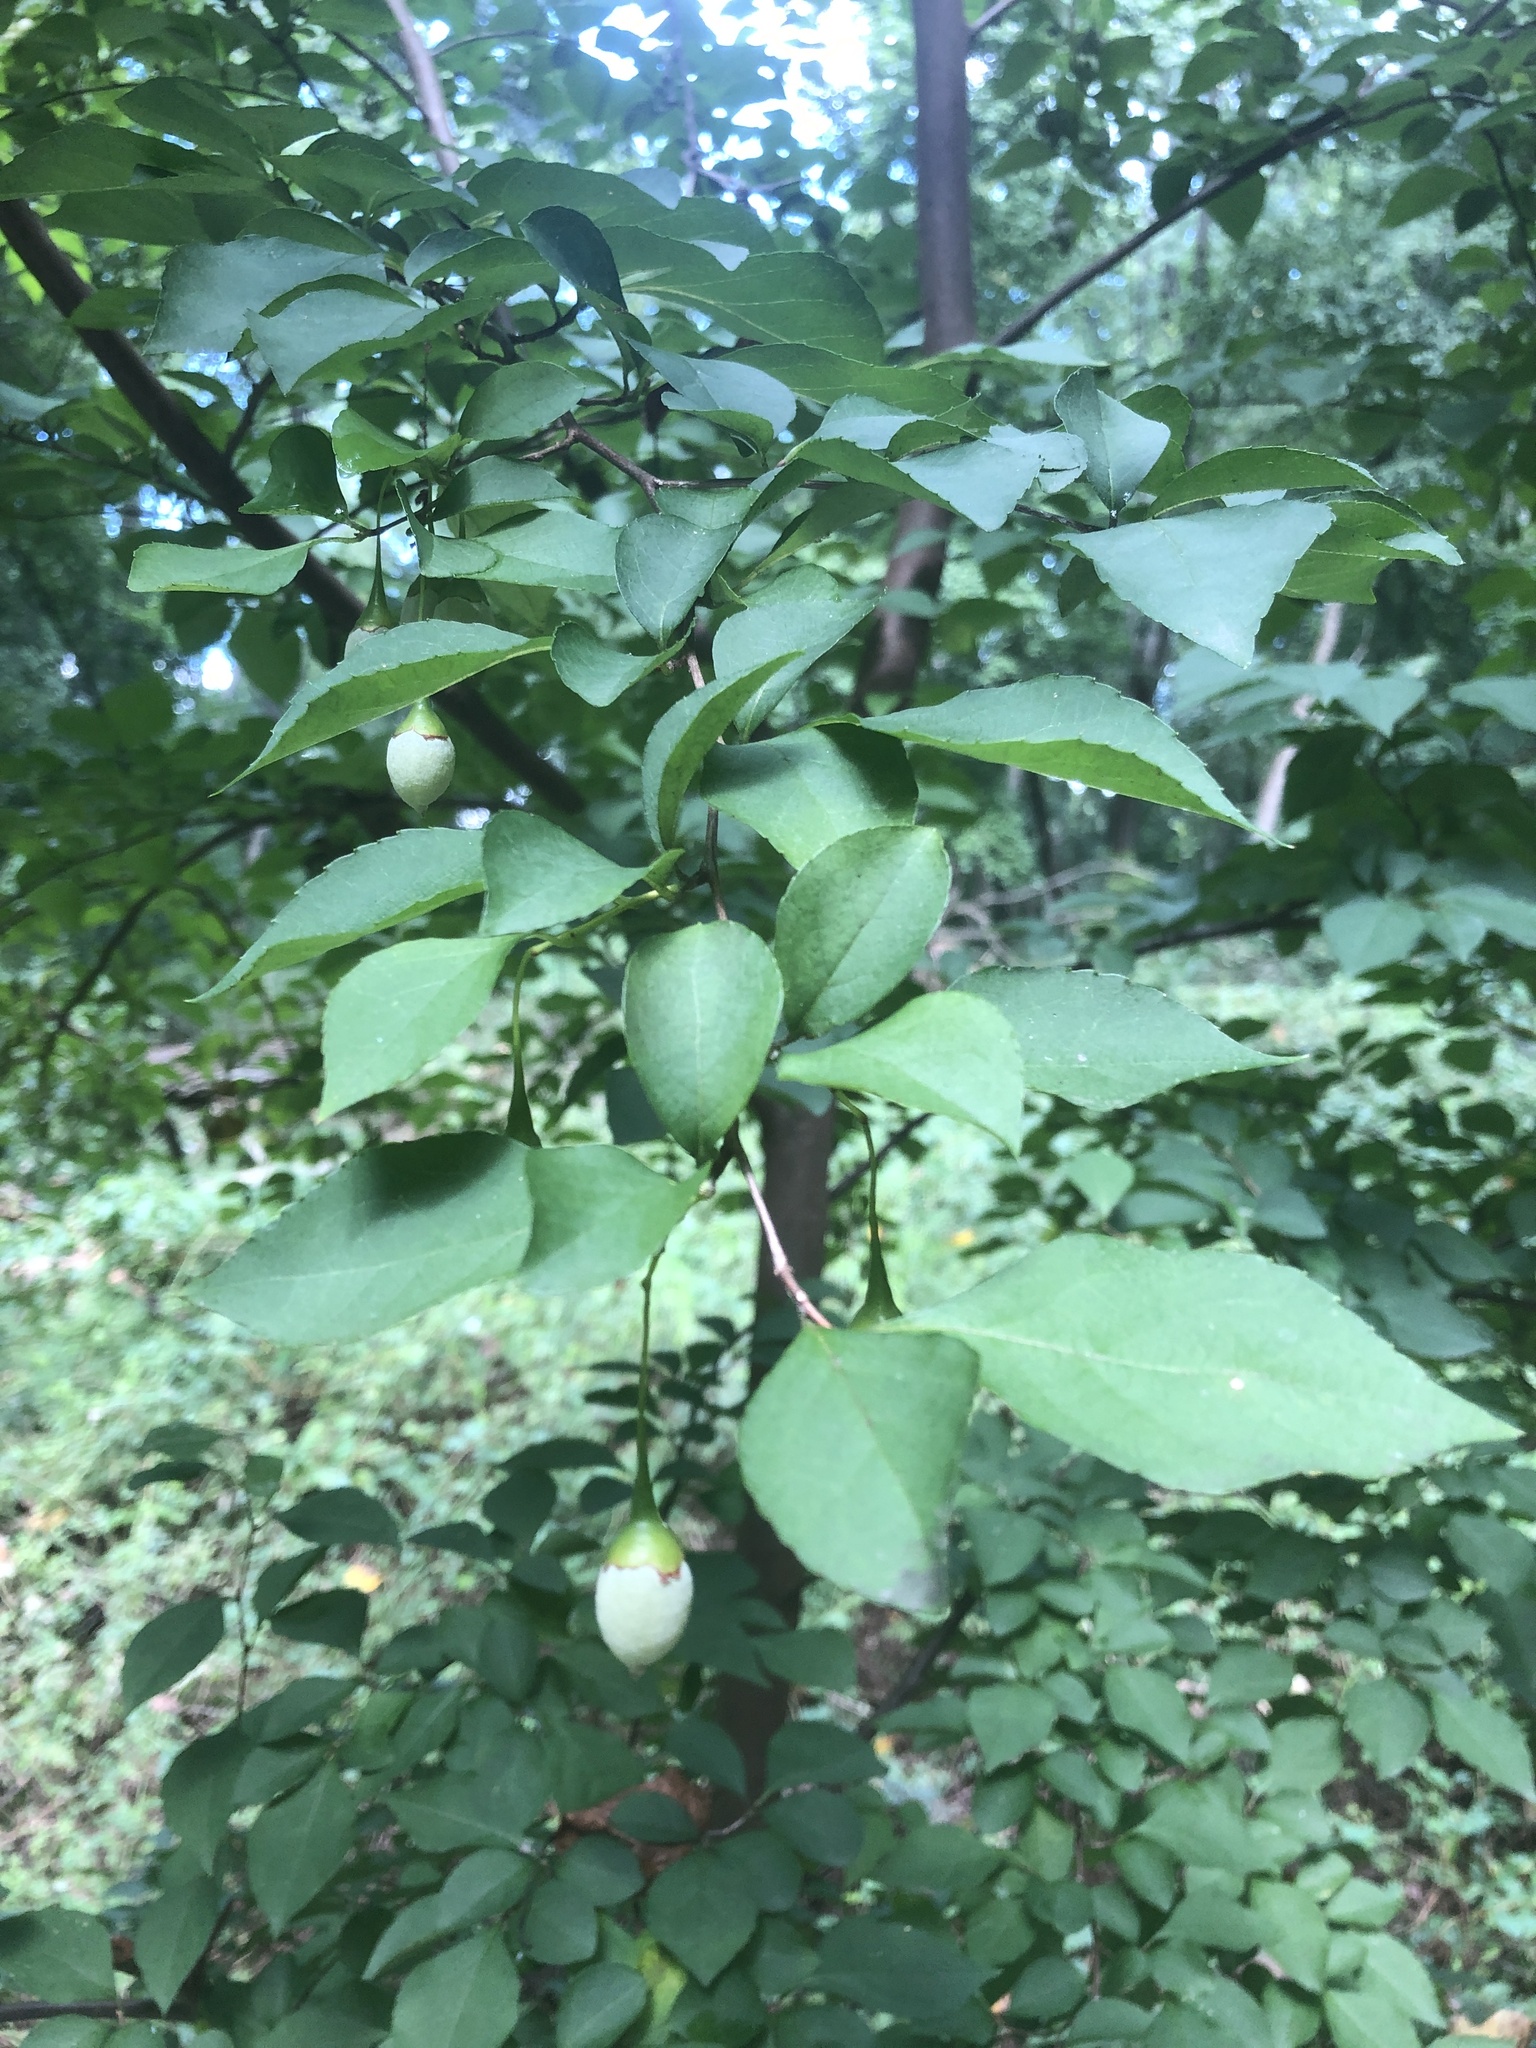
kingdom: Plantae
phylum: Tracheophyta
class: Magnoliopsida
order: Ericales
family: Styracaceae
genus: Styrax
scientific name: Styrax japonicus
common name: Japanese snowbell
